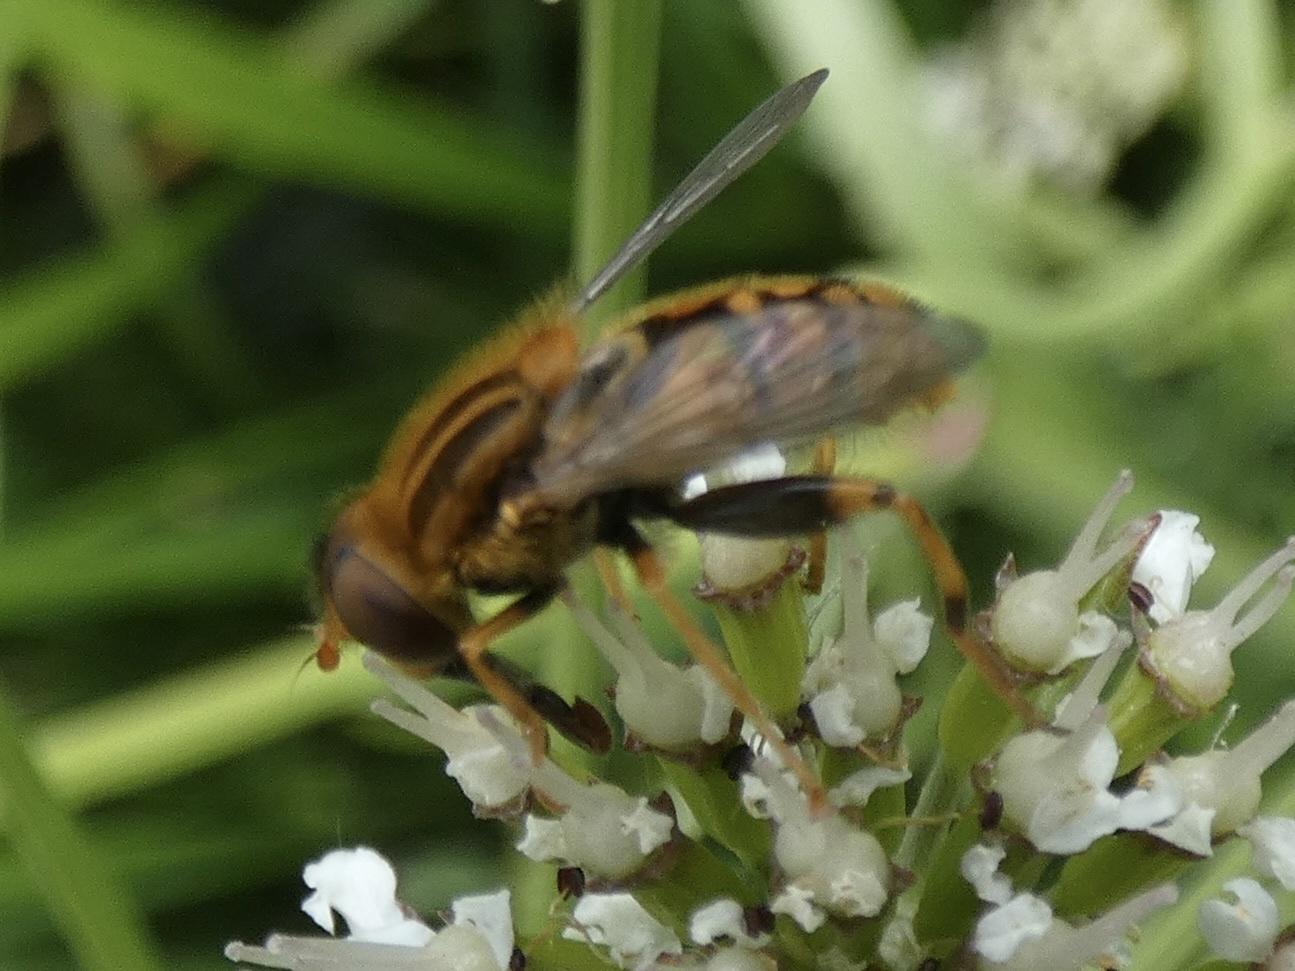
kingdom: Animalia
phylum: Arthropoda
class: Insecta
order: Diptera
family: Syrphidae
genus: Parhelophilus
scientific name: Parhelophilus
